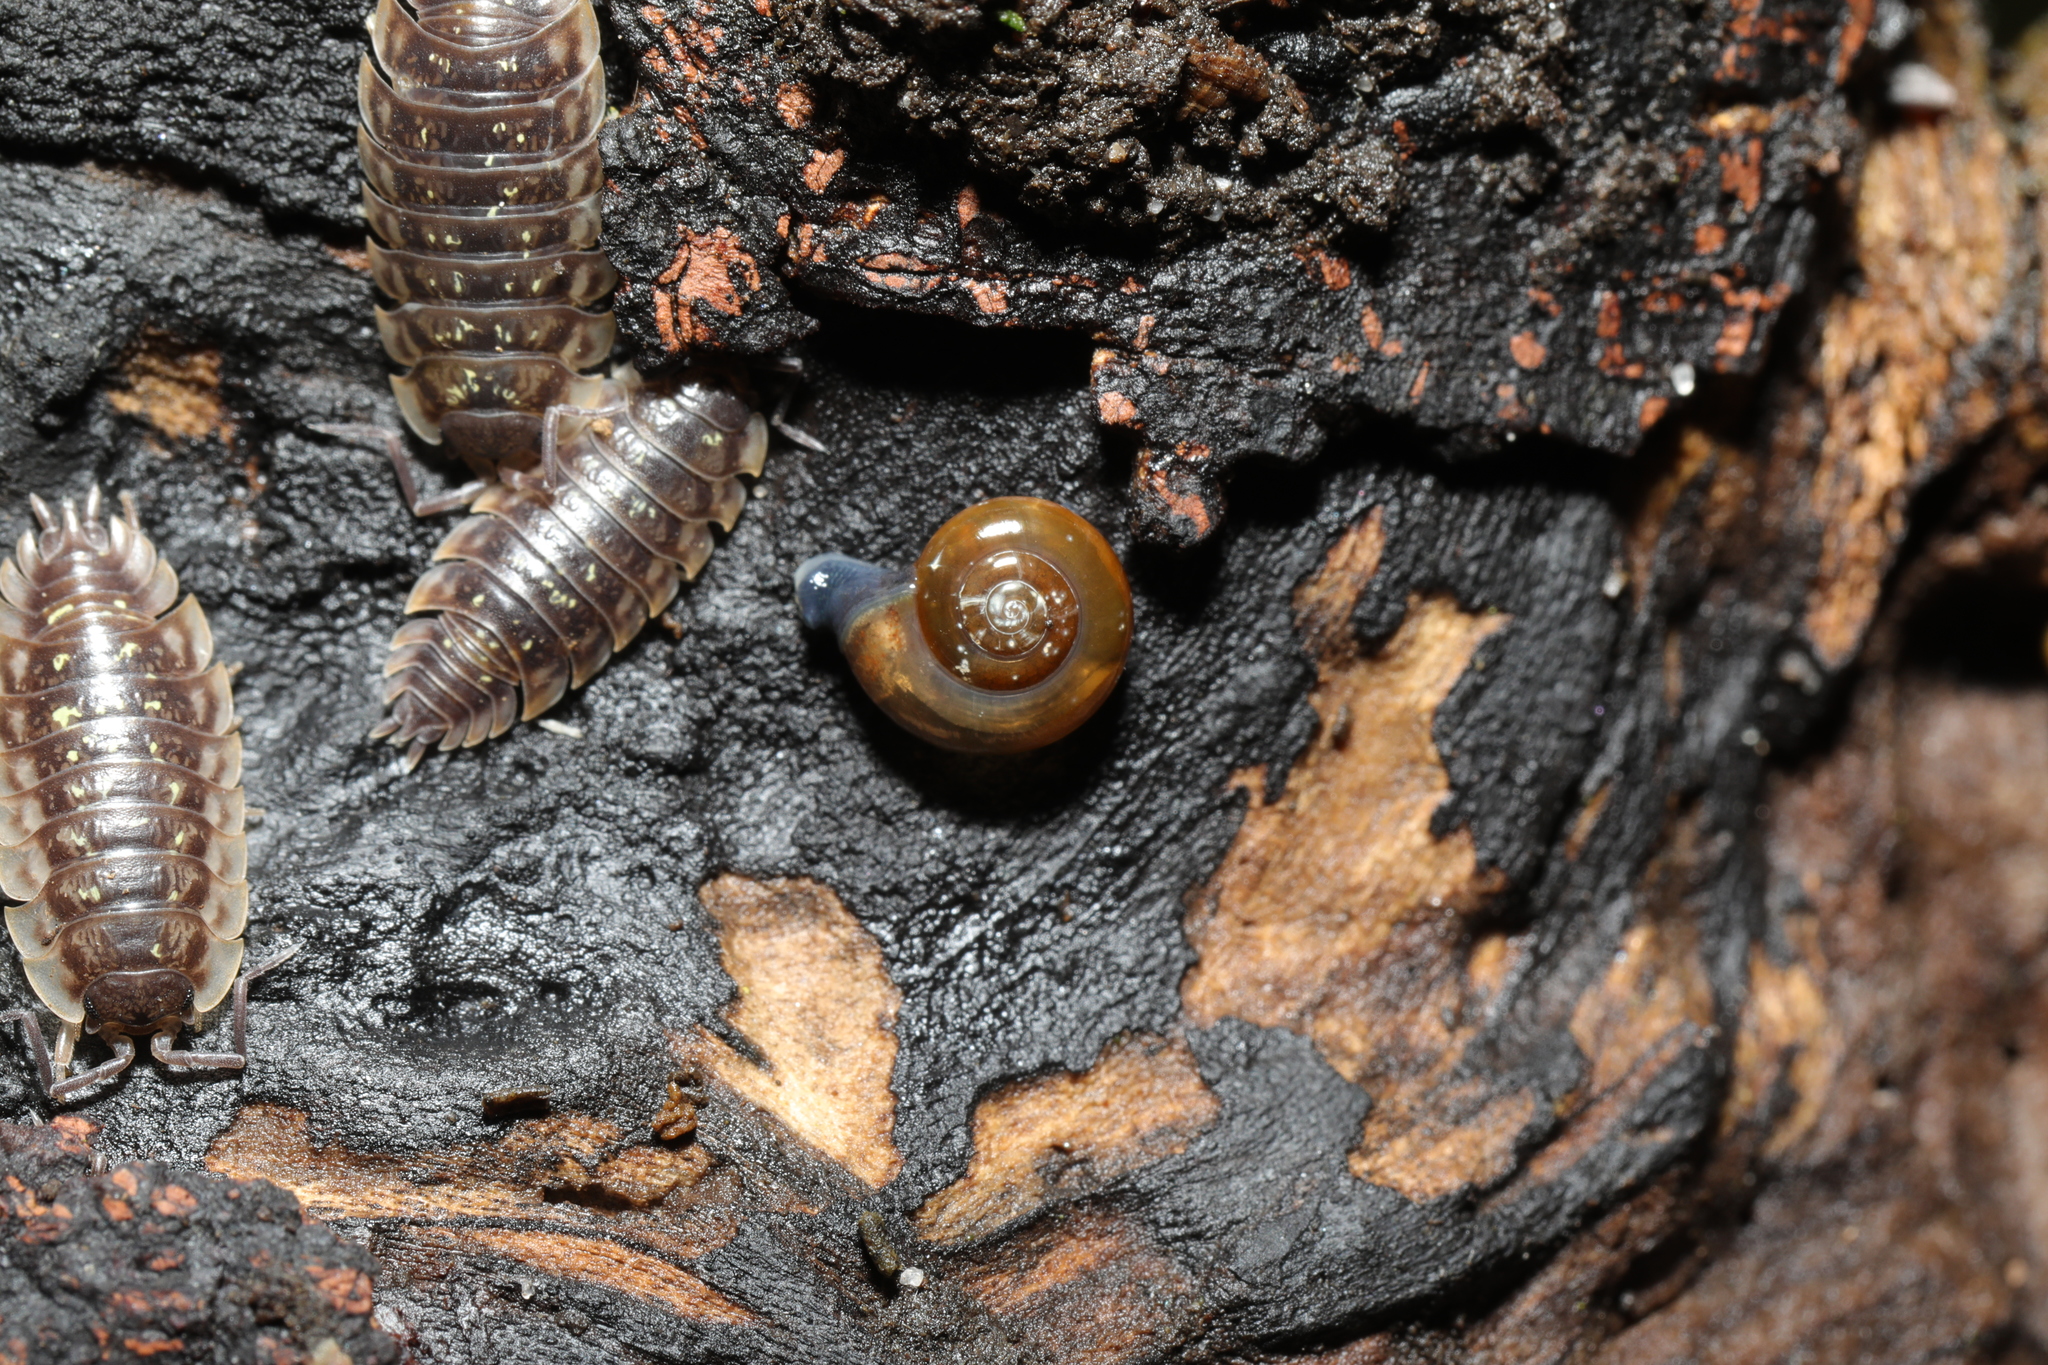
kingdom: Animalia
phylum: Mollusca
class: Gastropoda
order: Stylommatophora
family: Oxychilidae
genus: Oxychilus
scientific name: Oxychilus draparnaudi
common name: Draparnaud's glass snail
